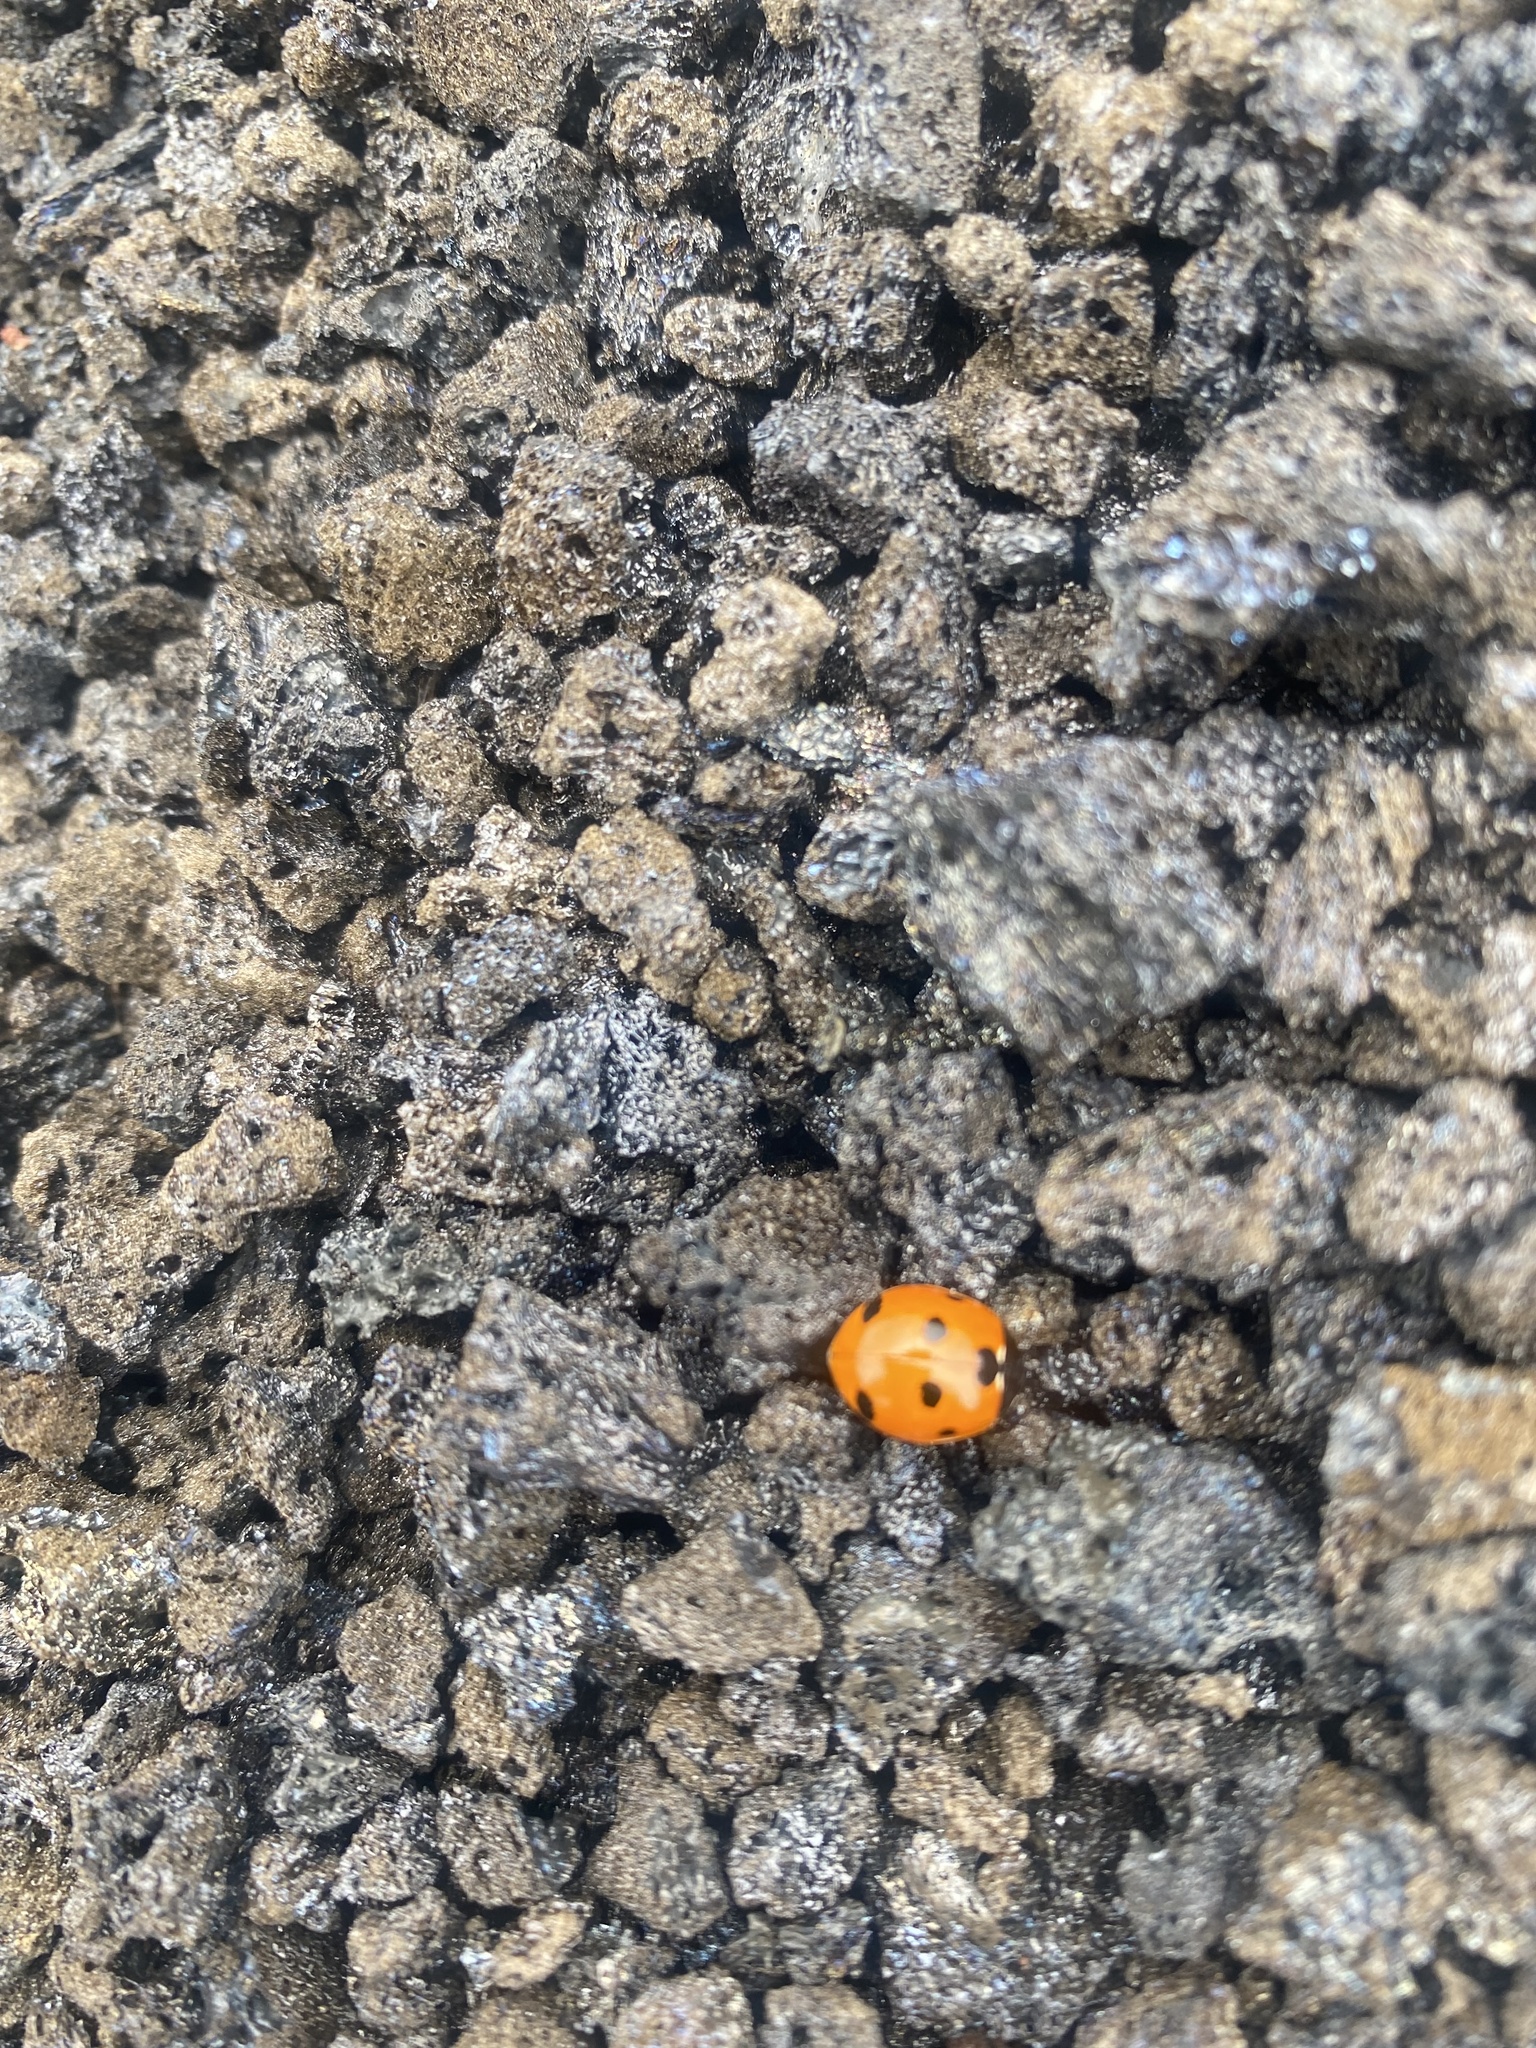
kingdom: Animalia
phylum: Arthropoda
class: Insecta
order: Coleoptera
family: Coccinellidae
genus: Coccinella
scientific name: Coccinella septempunctata
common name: Sevenspotted lady beetle
